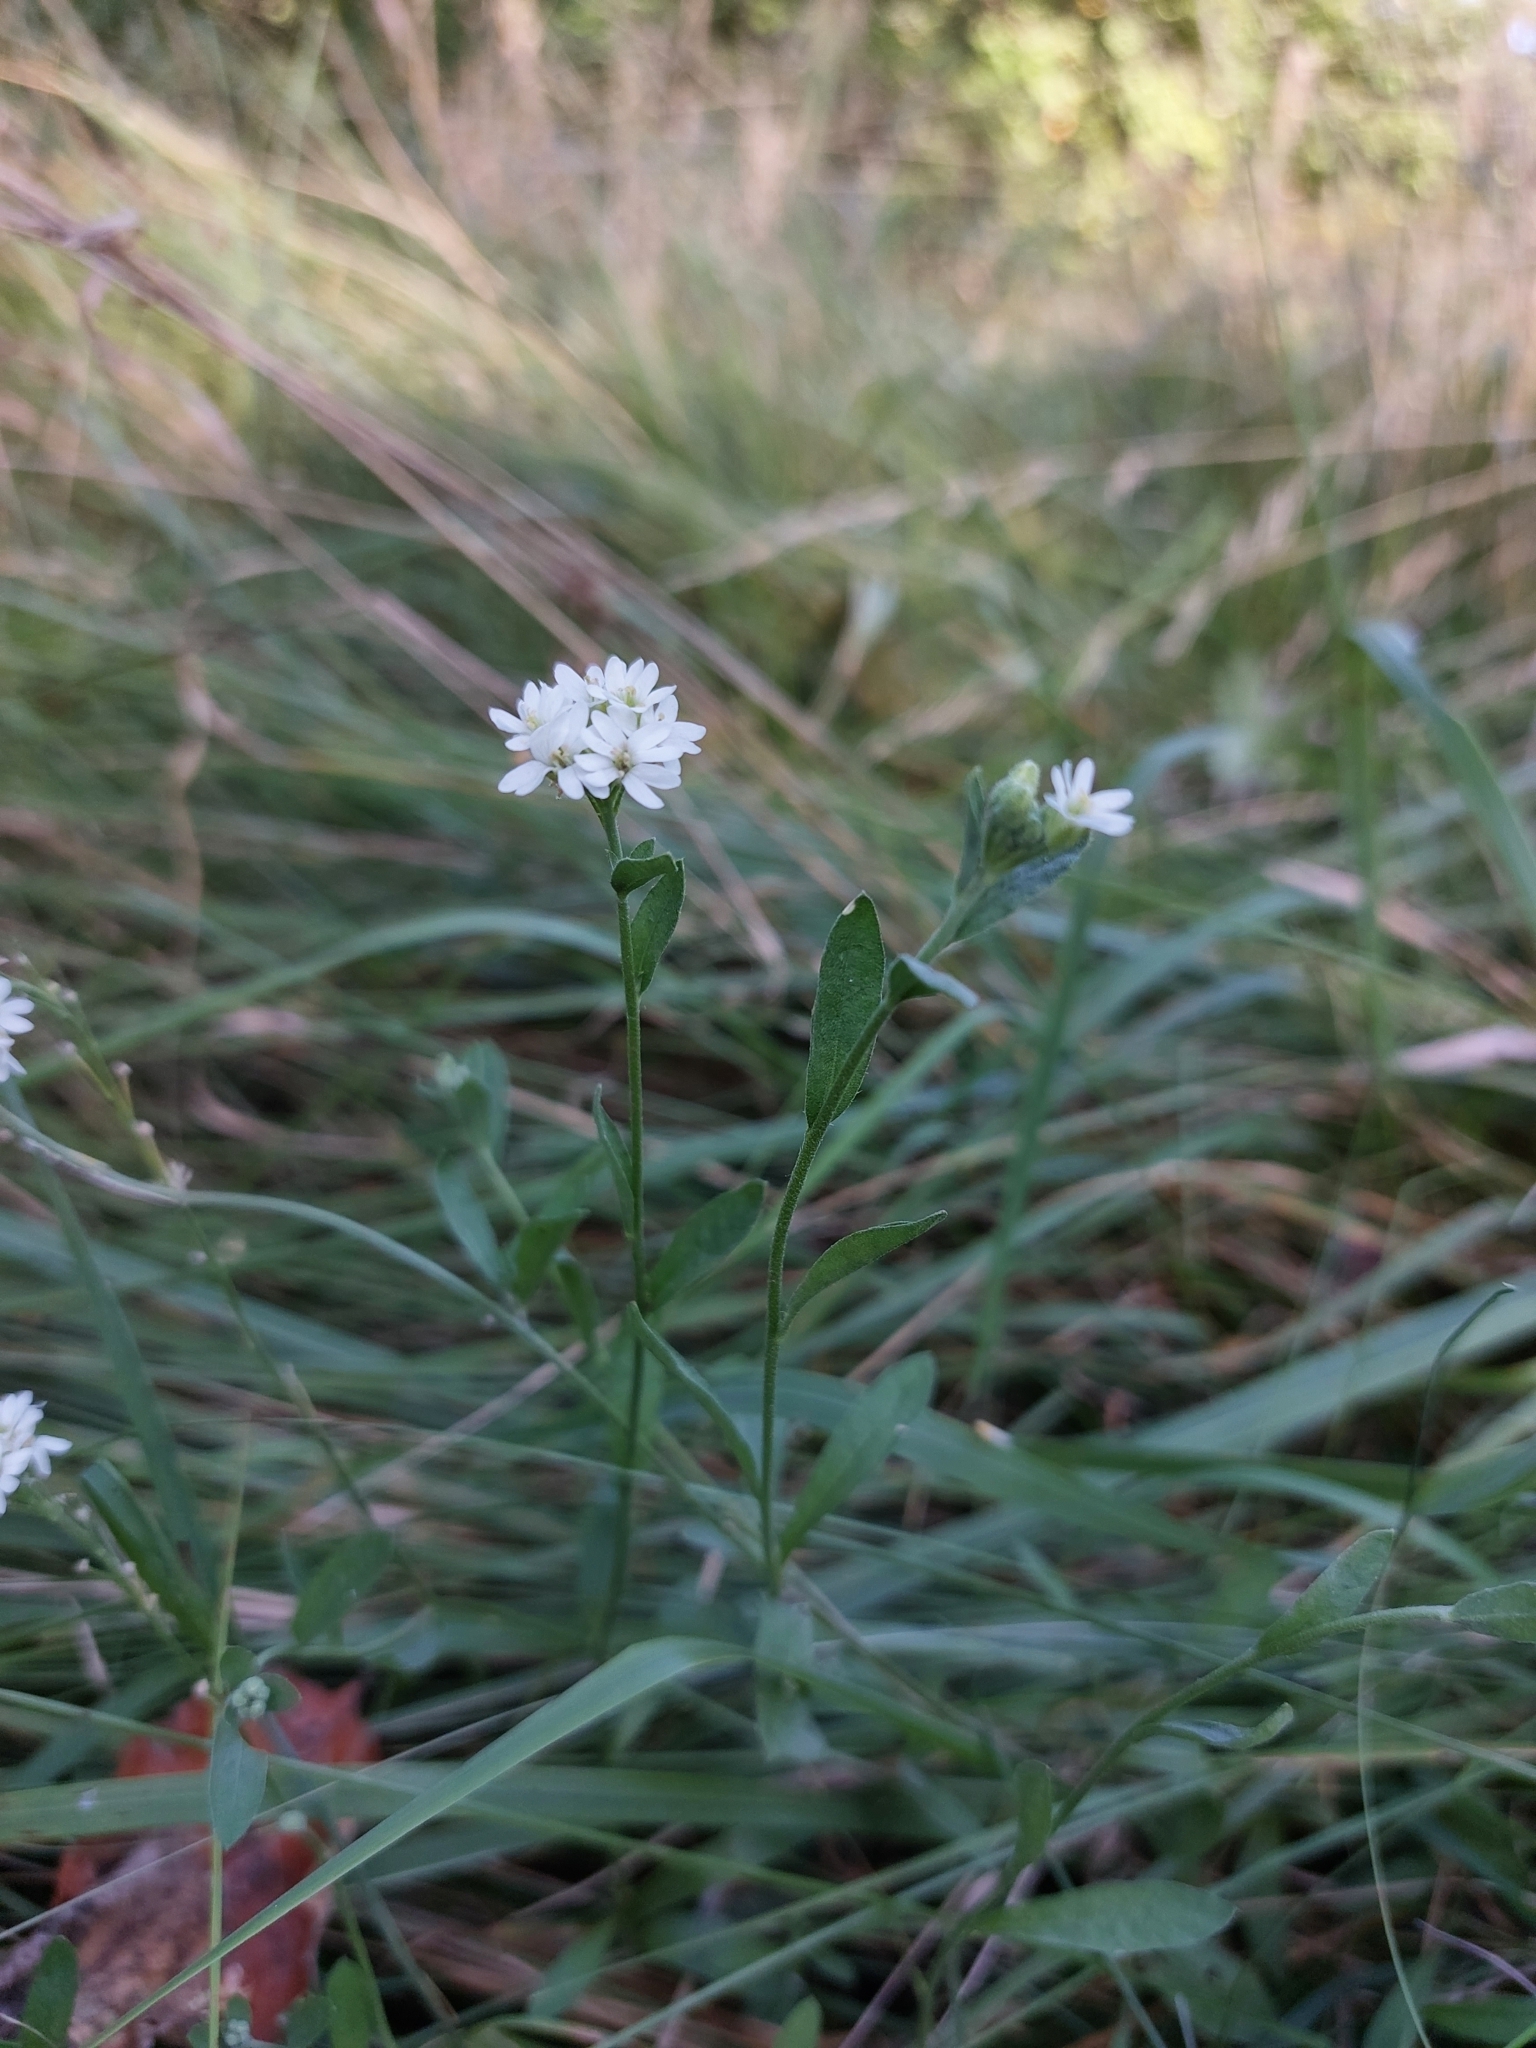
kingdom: Plantae
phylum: Tracheophyta
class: Magnoliopsida
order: Brassicales
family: Brassicaceae
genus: Berteroa
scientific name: Berteroa incana
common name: Hoary alison
